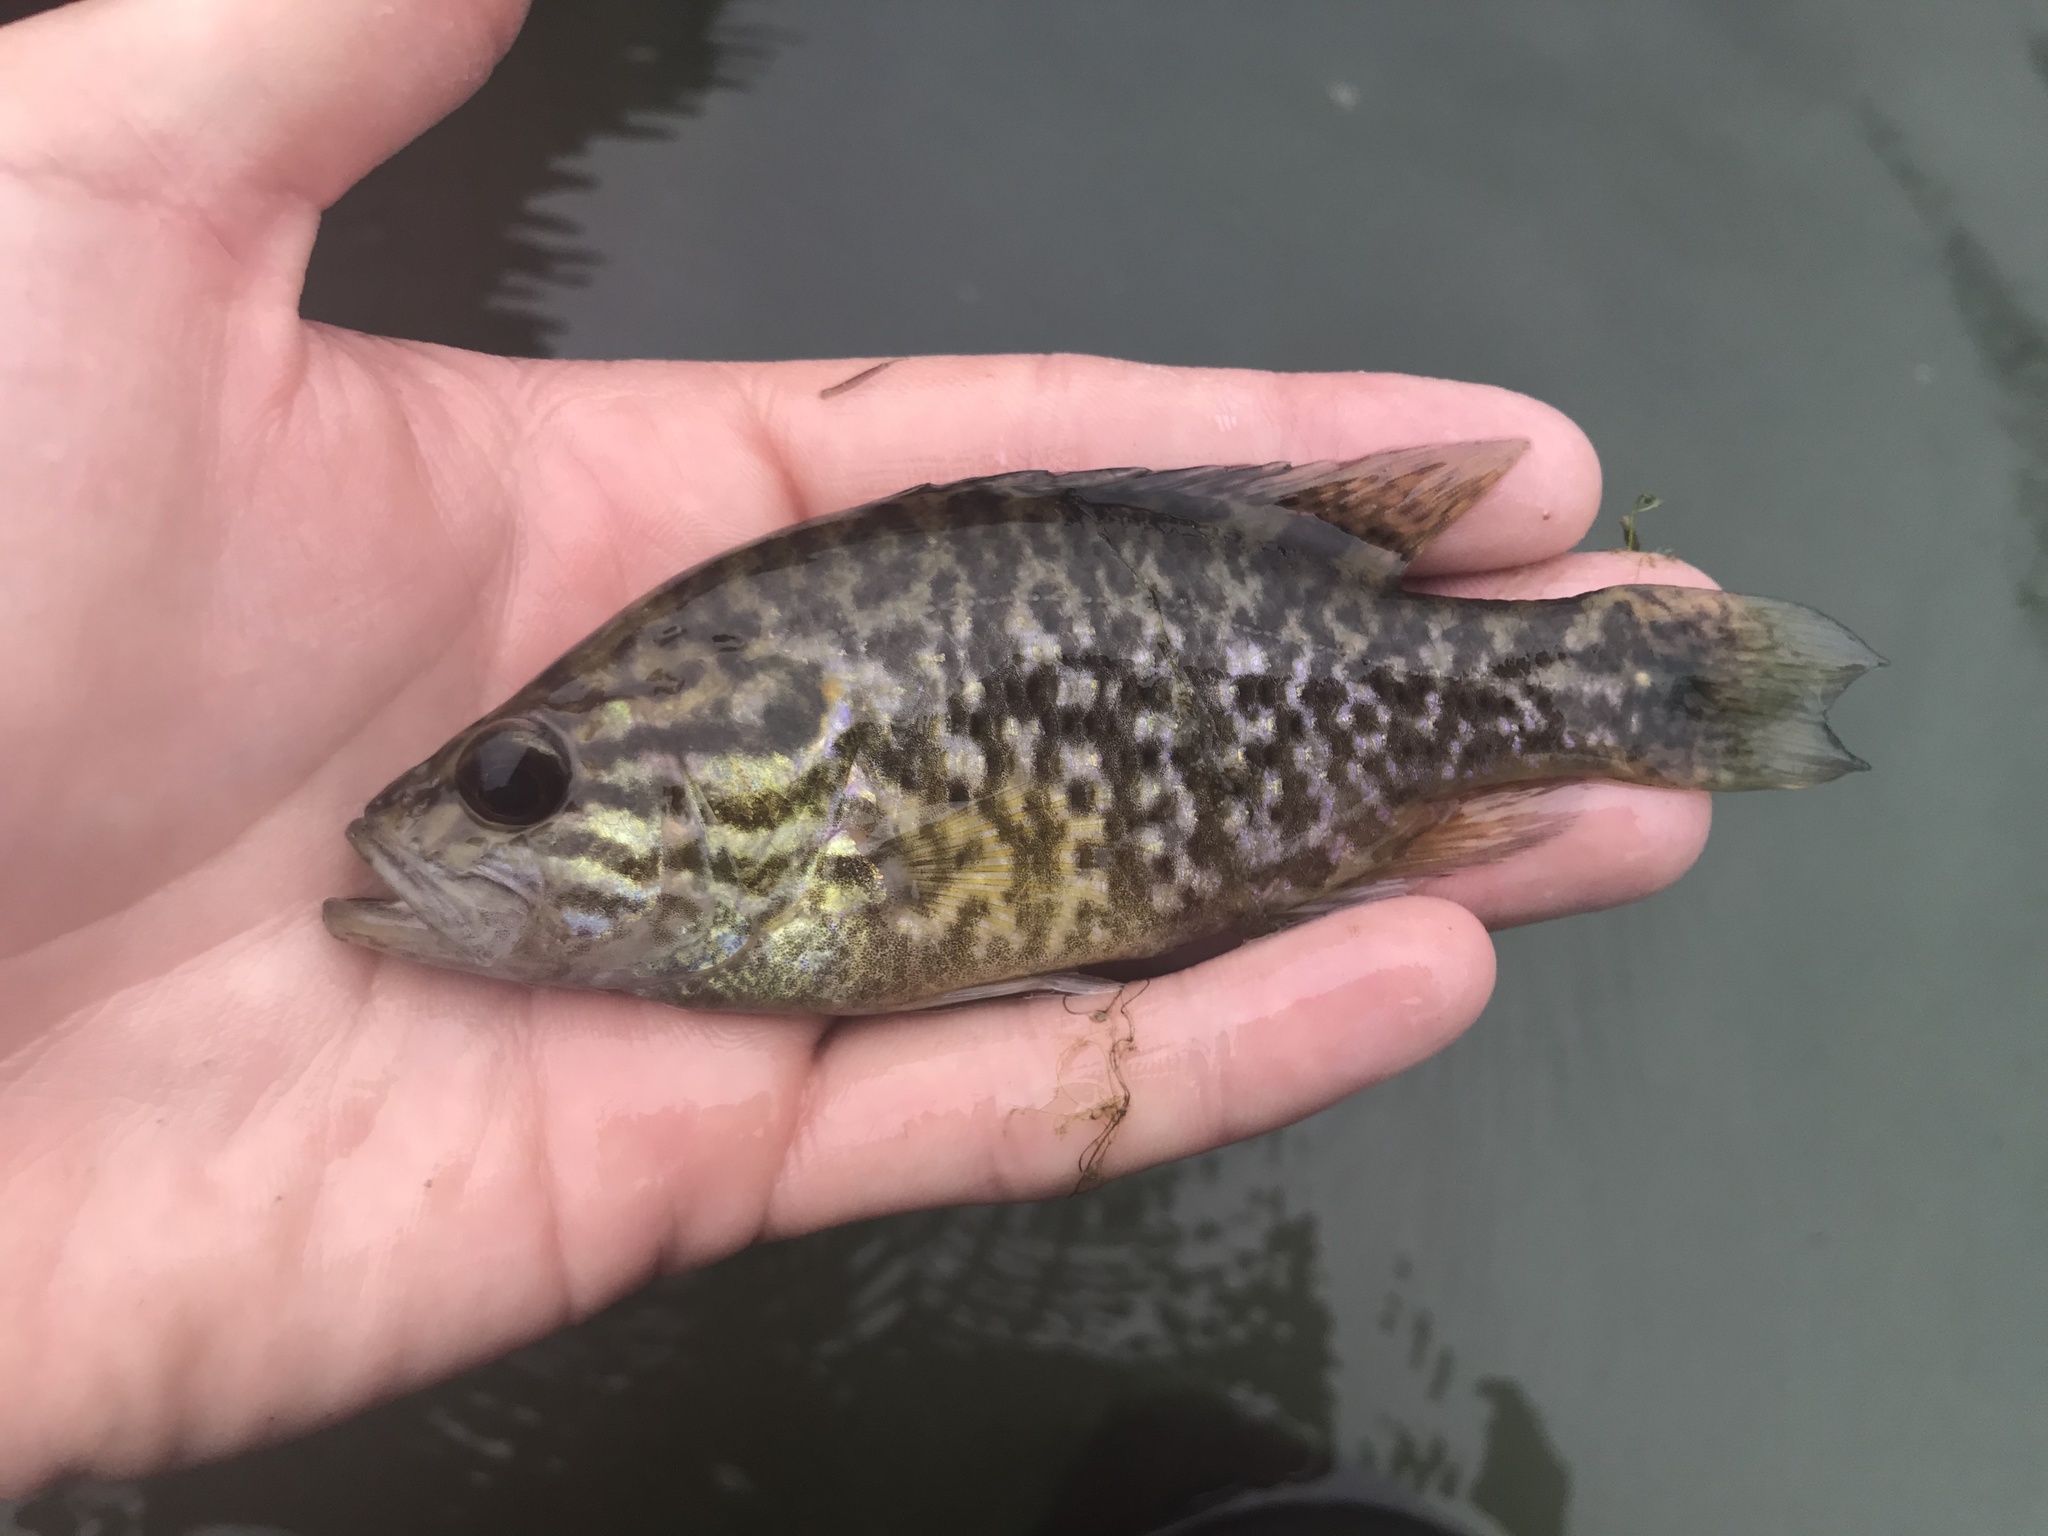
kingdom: Animalia
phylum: Chordata
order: Perciformes
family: Centrarchidae
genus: Lepomis
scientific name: Lepomis gulosus
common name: Warmouth
